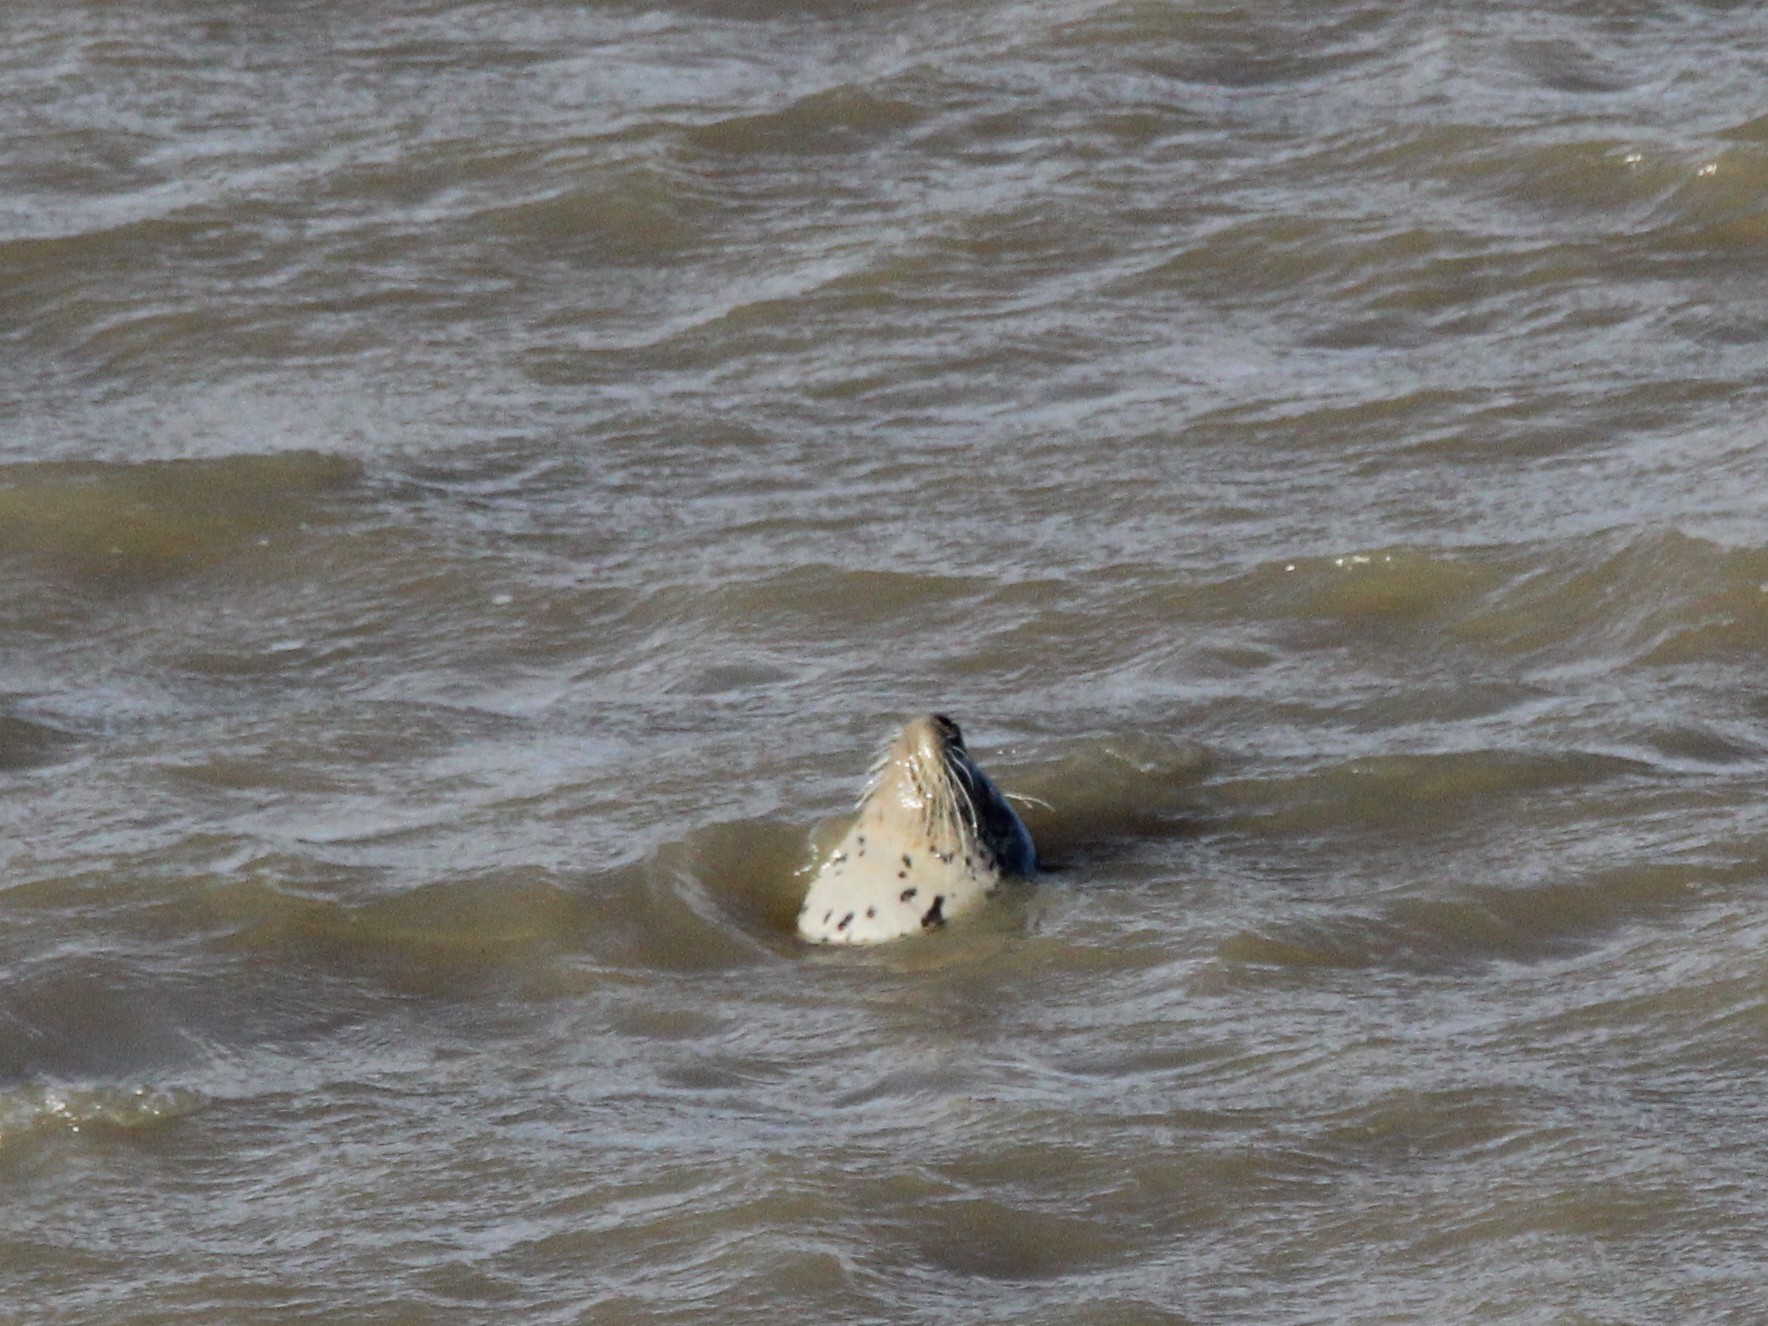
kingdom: Animalia
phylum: Chordata
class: Mammalia
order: Carnivora
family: Phocidae
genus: Phoca
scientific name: Phoca vitulina
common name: Harbor seal
